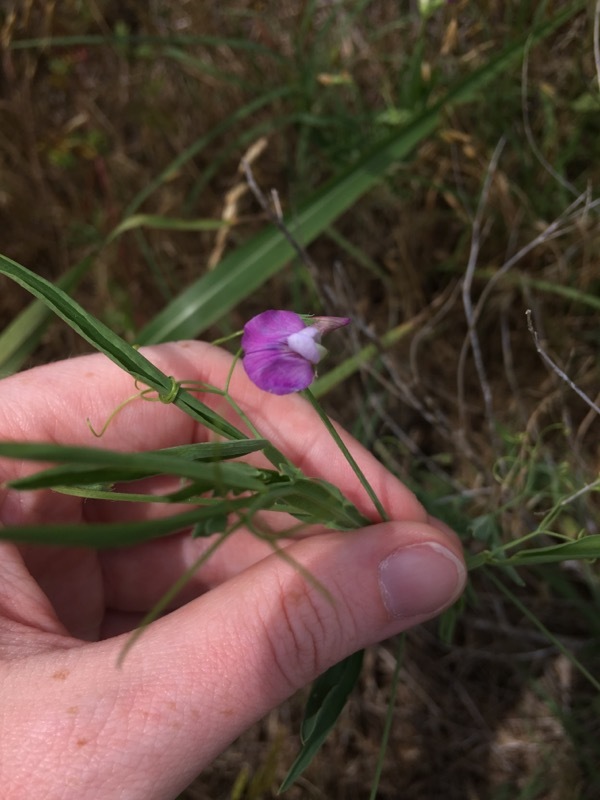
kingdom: Plantae
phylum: Tracheophyta
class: Magnoliopsida
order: Fabales
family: Fabaceae
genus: Lathyrus
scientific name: Lathyrus hirsutus
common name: Hairy vetchling
